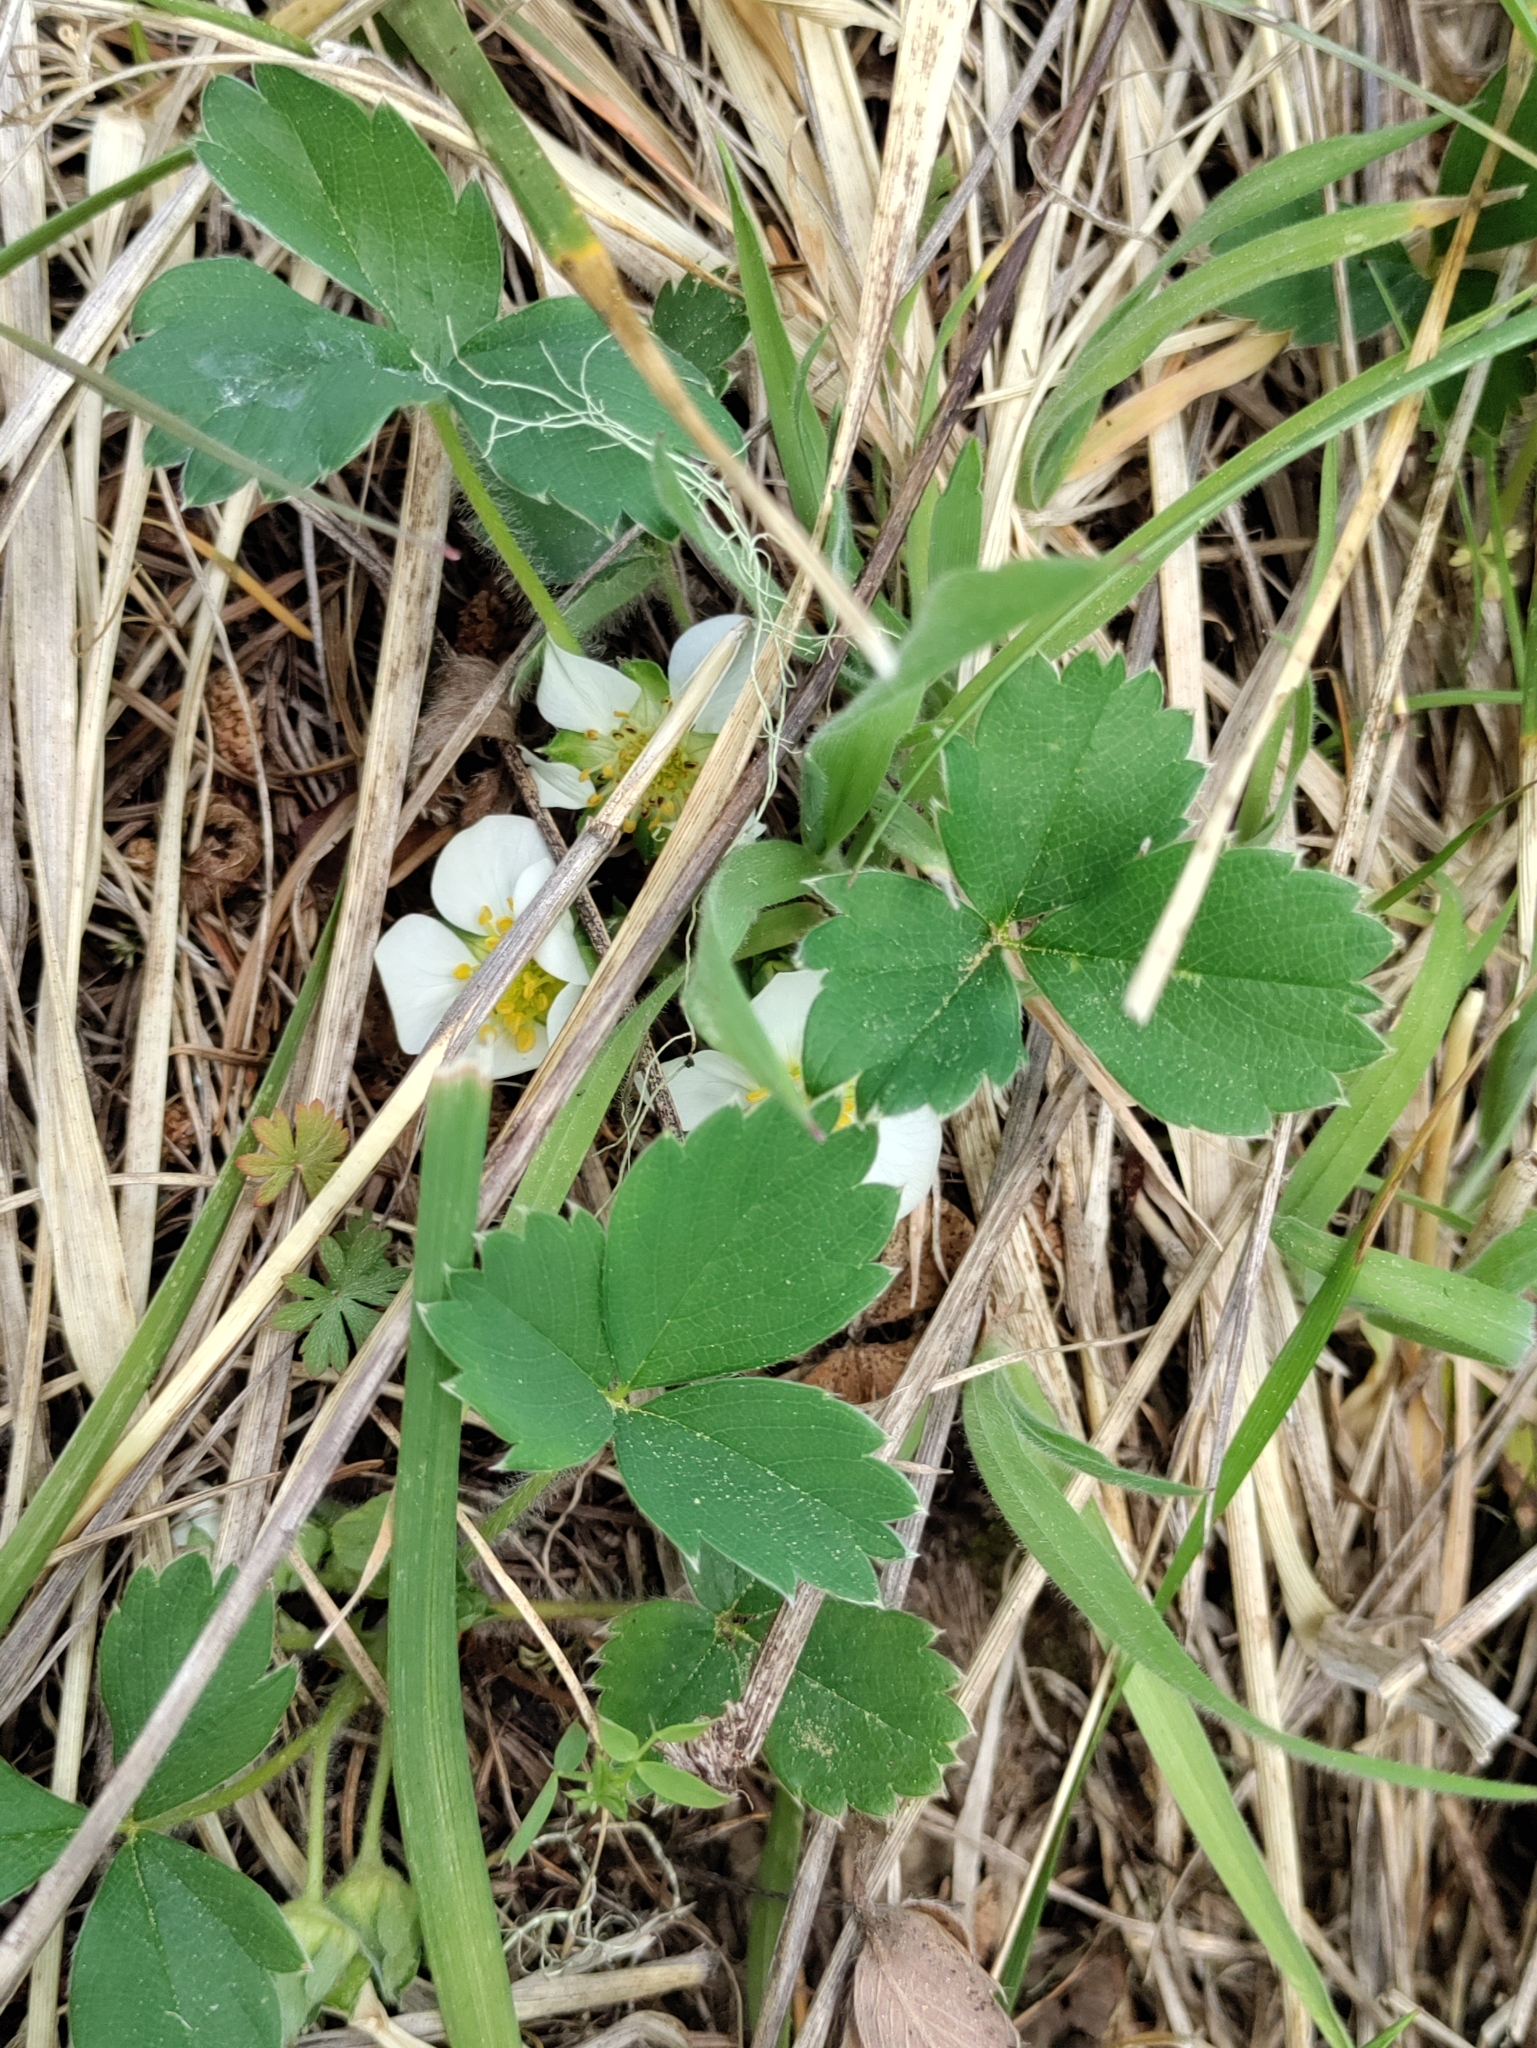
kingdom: Plantae
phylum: Tracheophyta
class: Magnoliopsida
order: Rosales
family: Rosaceae
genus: Fragaria
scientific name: Fragaria virginiana
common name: Thickleaved wild strawberry
